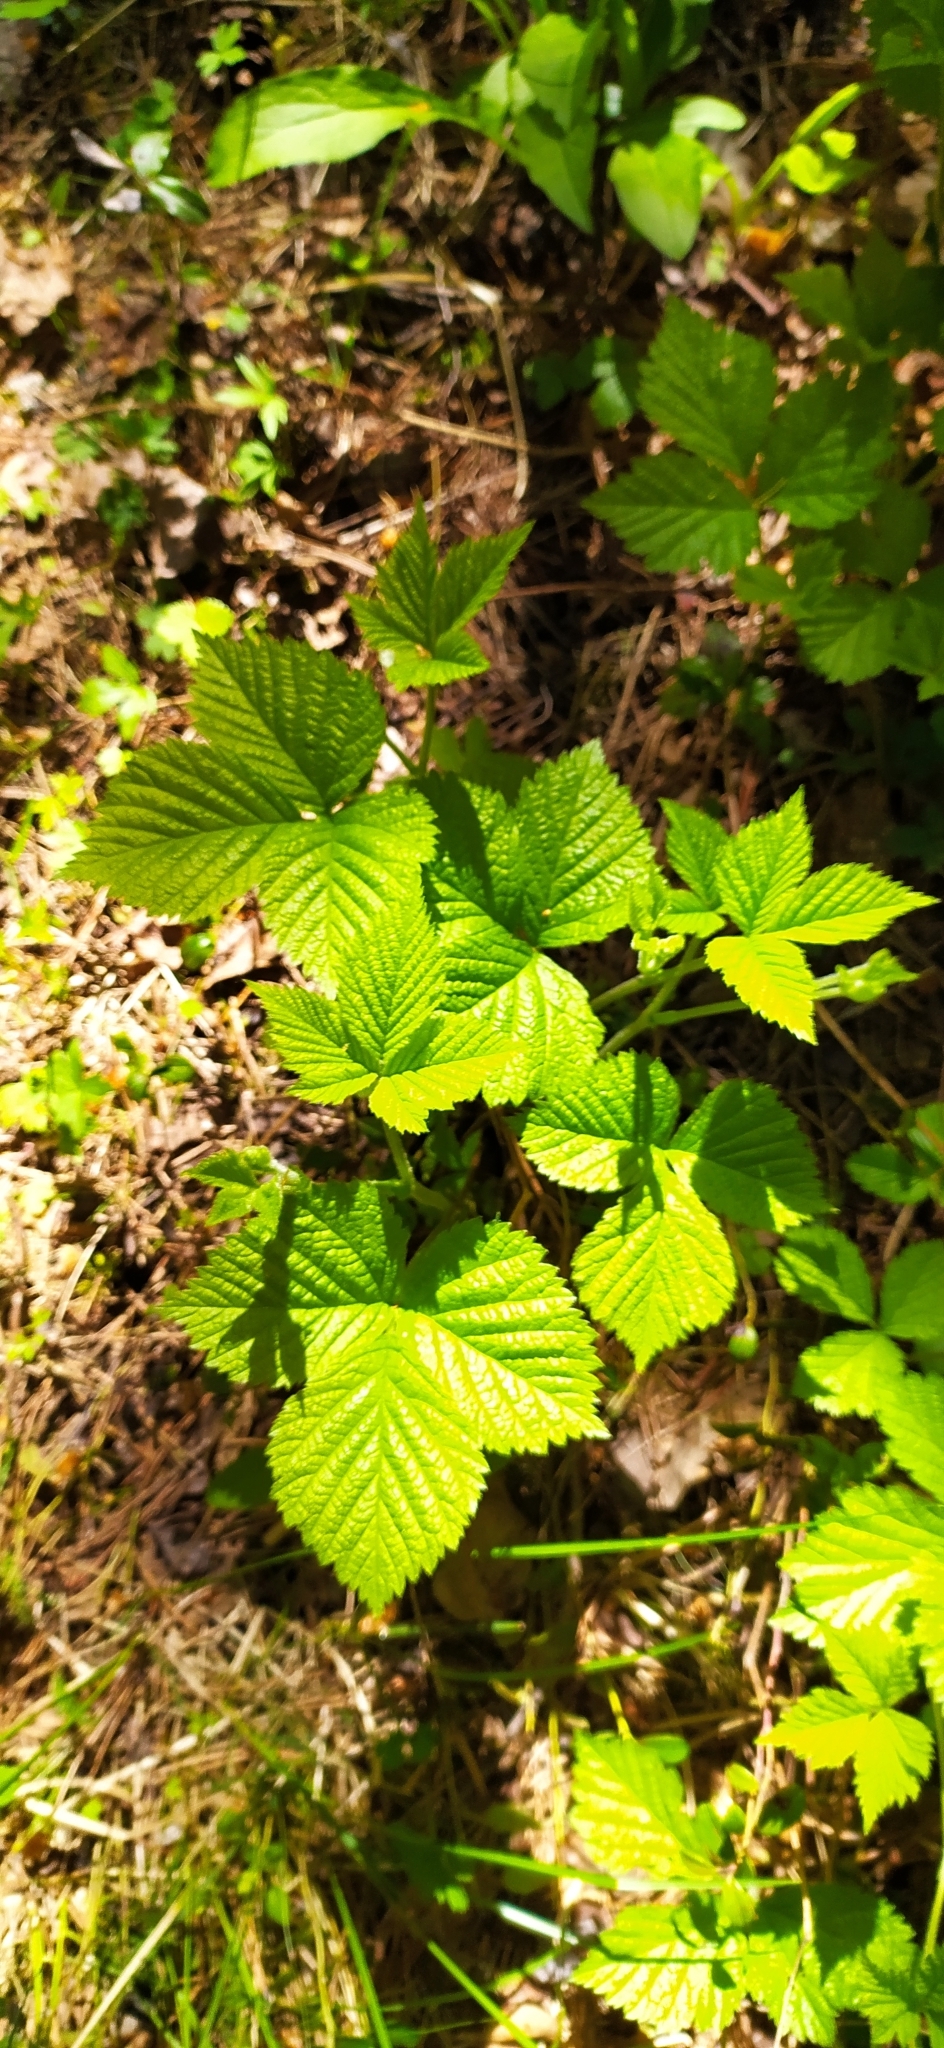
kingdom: Plantae
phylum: Tracheophyta
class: Magnoliopsida
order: Rosales
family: Rosaceae
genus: Rubus
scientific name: Rubus saxatilis
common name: Stone bramble
